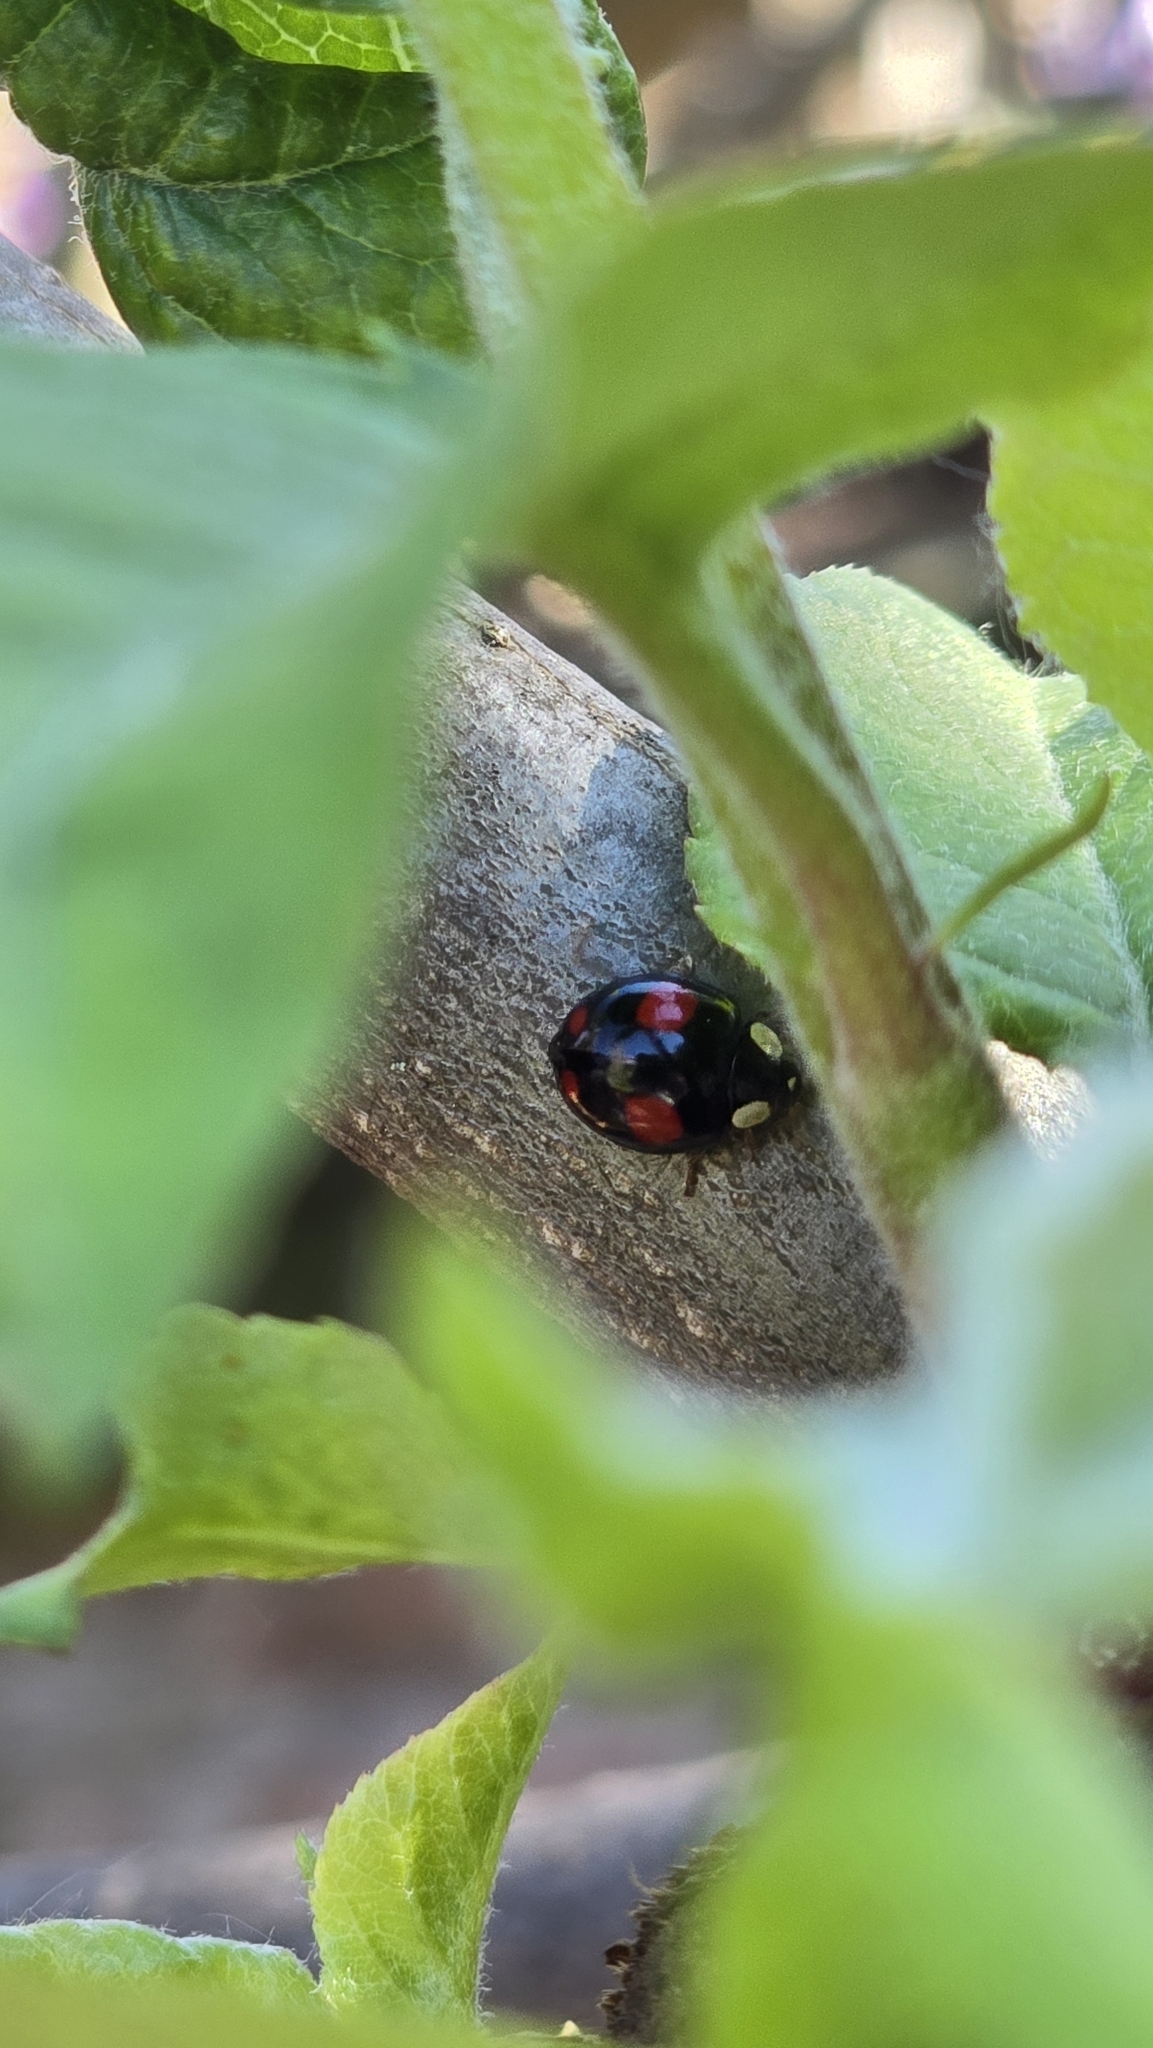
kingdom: Animalia
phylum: Arthropoda
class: Insecta
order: Coleoptera
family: Coccinellidae
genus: Harmonia
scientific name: Harmonia axyridis
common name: Harlequin ladybird
